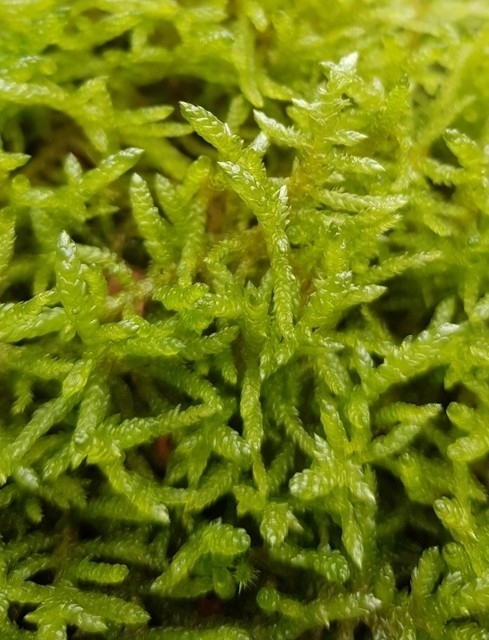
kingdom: Plantae
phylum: Bryophyta
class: Bryopsida
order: Hypnales
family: Brachytheciaceae
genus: Pseudoscleropodium
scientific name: Pseudoscleropodium purum
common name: Neat feather-moss
